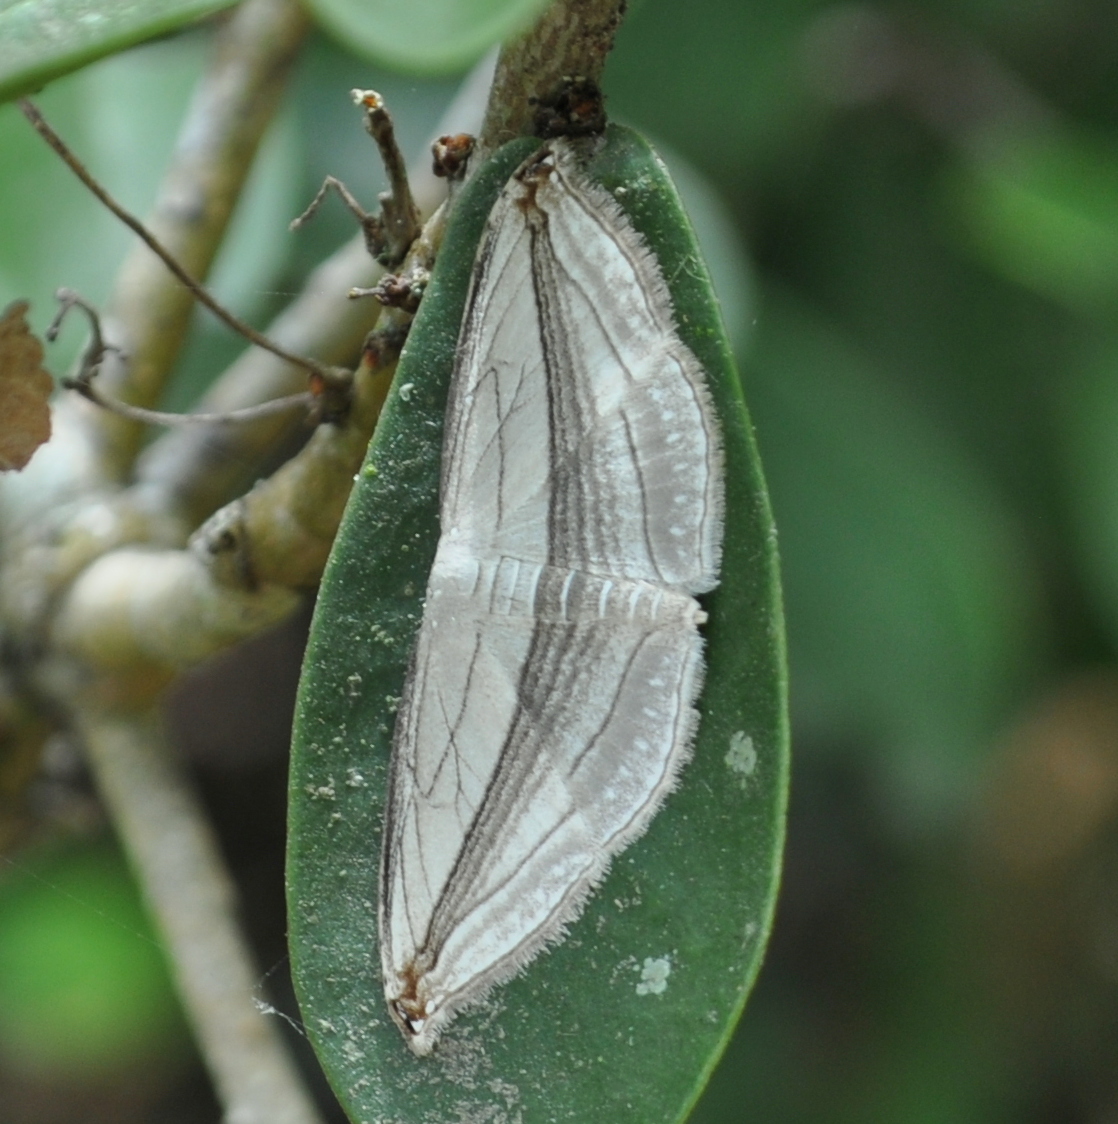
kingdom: Animalia
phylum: Arthropoda
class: Insecta
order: Lepidoptera
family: Geometridae
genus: Arcobara
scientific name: Arcobara tergeminaria
